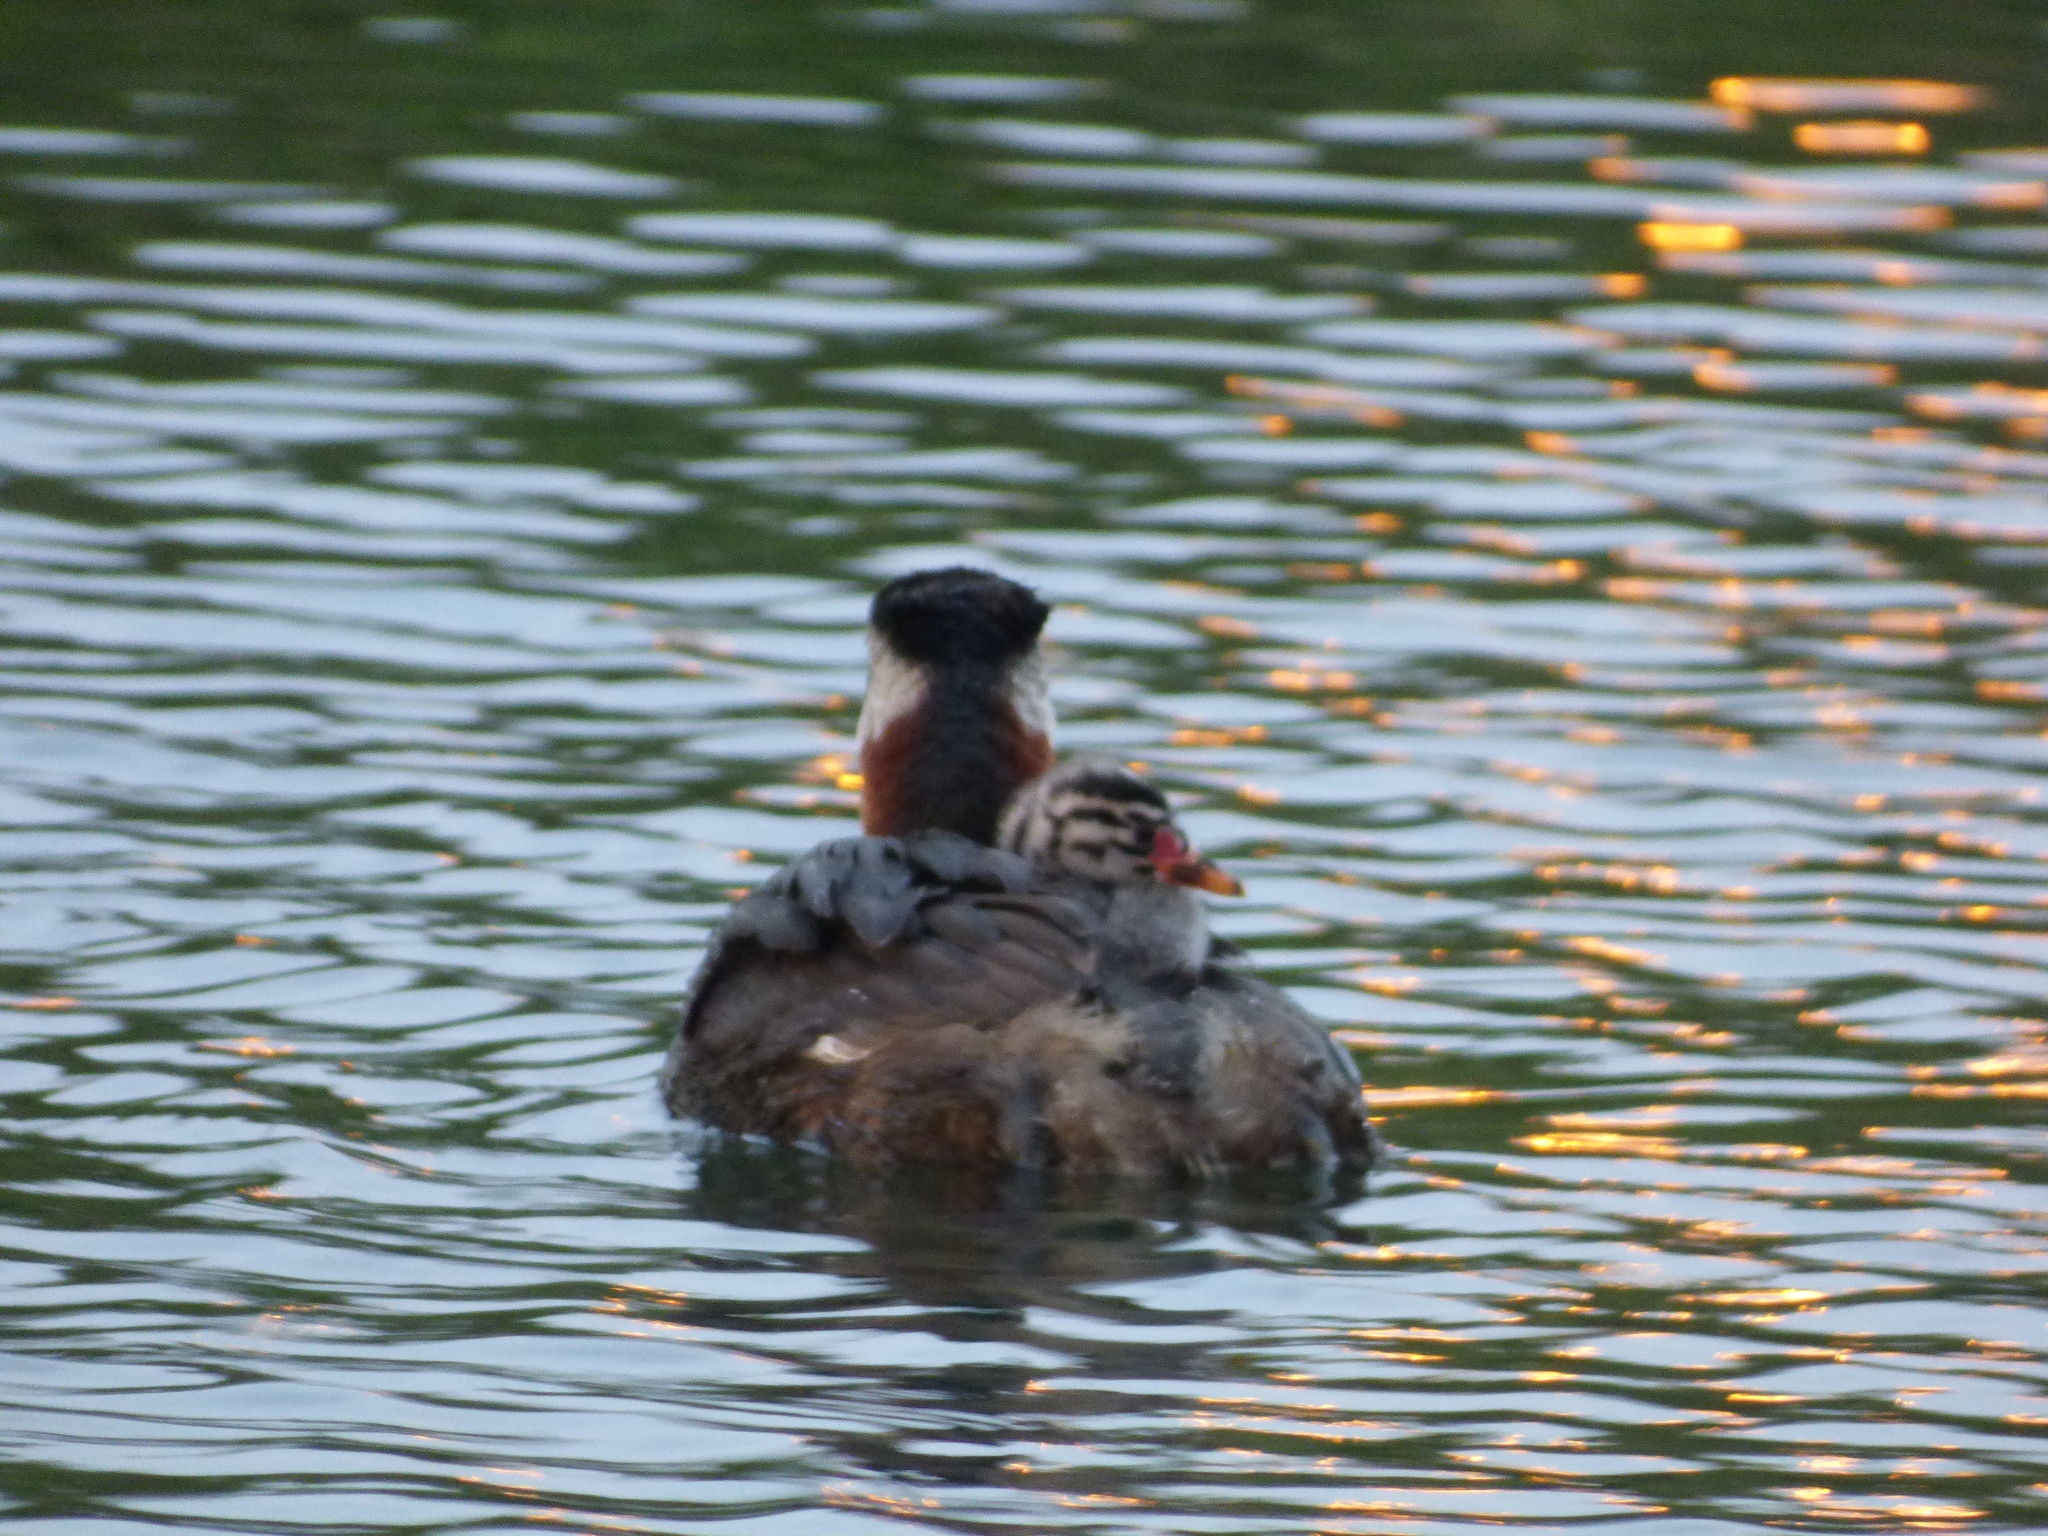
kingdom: Animalia
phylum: Chordata
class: Aves
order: Podicipediformes
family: Podicipedidae
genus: Podiceps
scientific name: Podiceps grisegena
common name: Red-necked grebe
